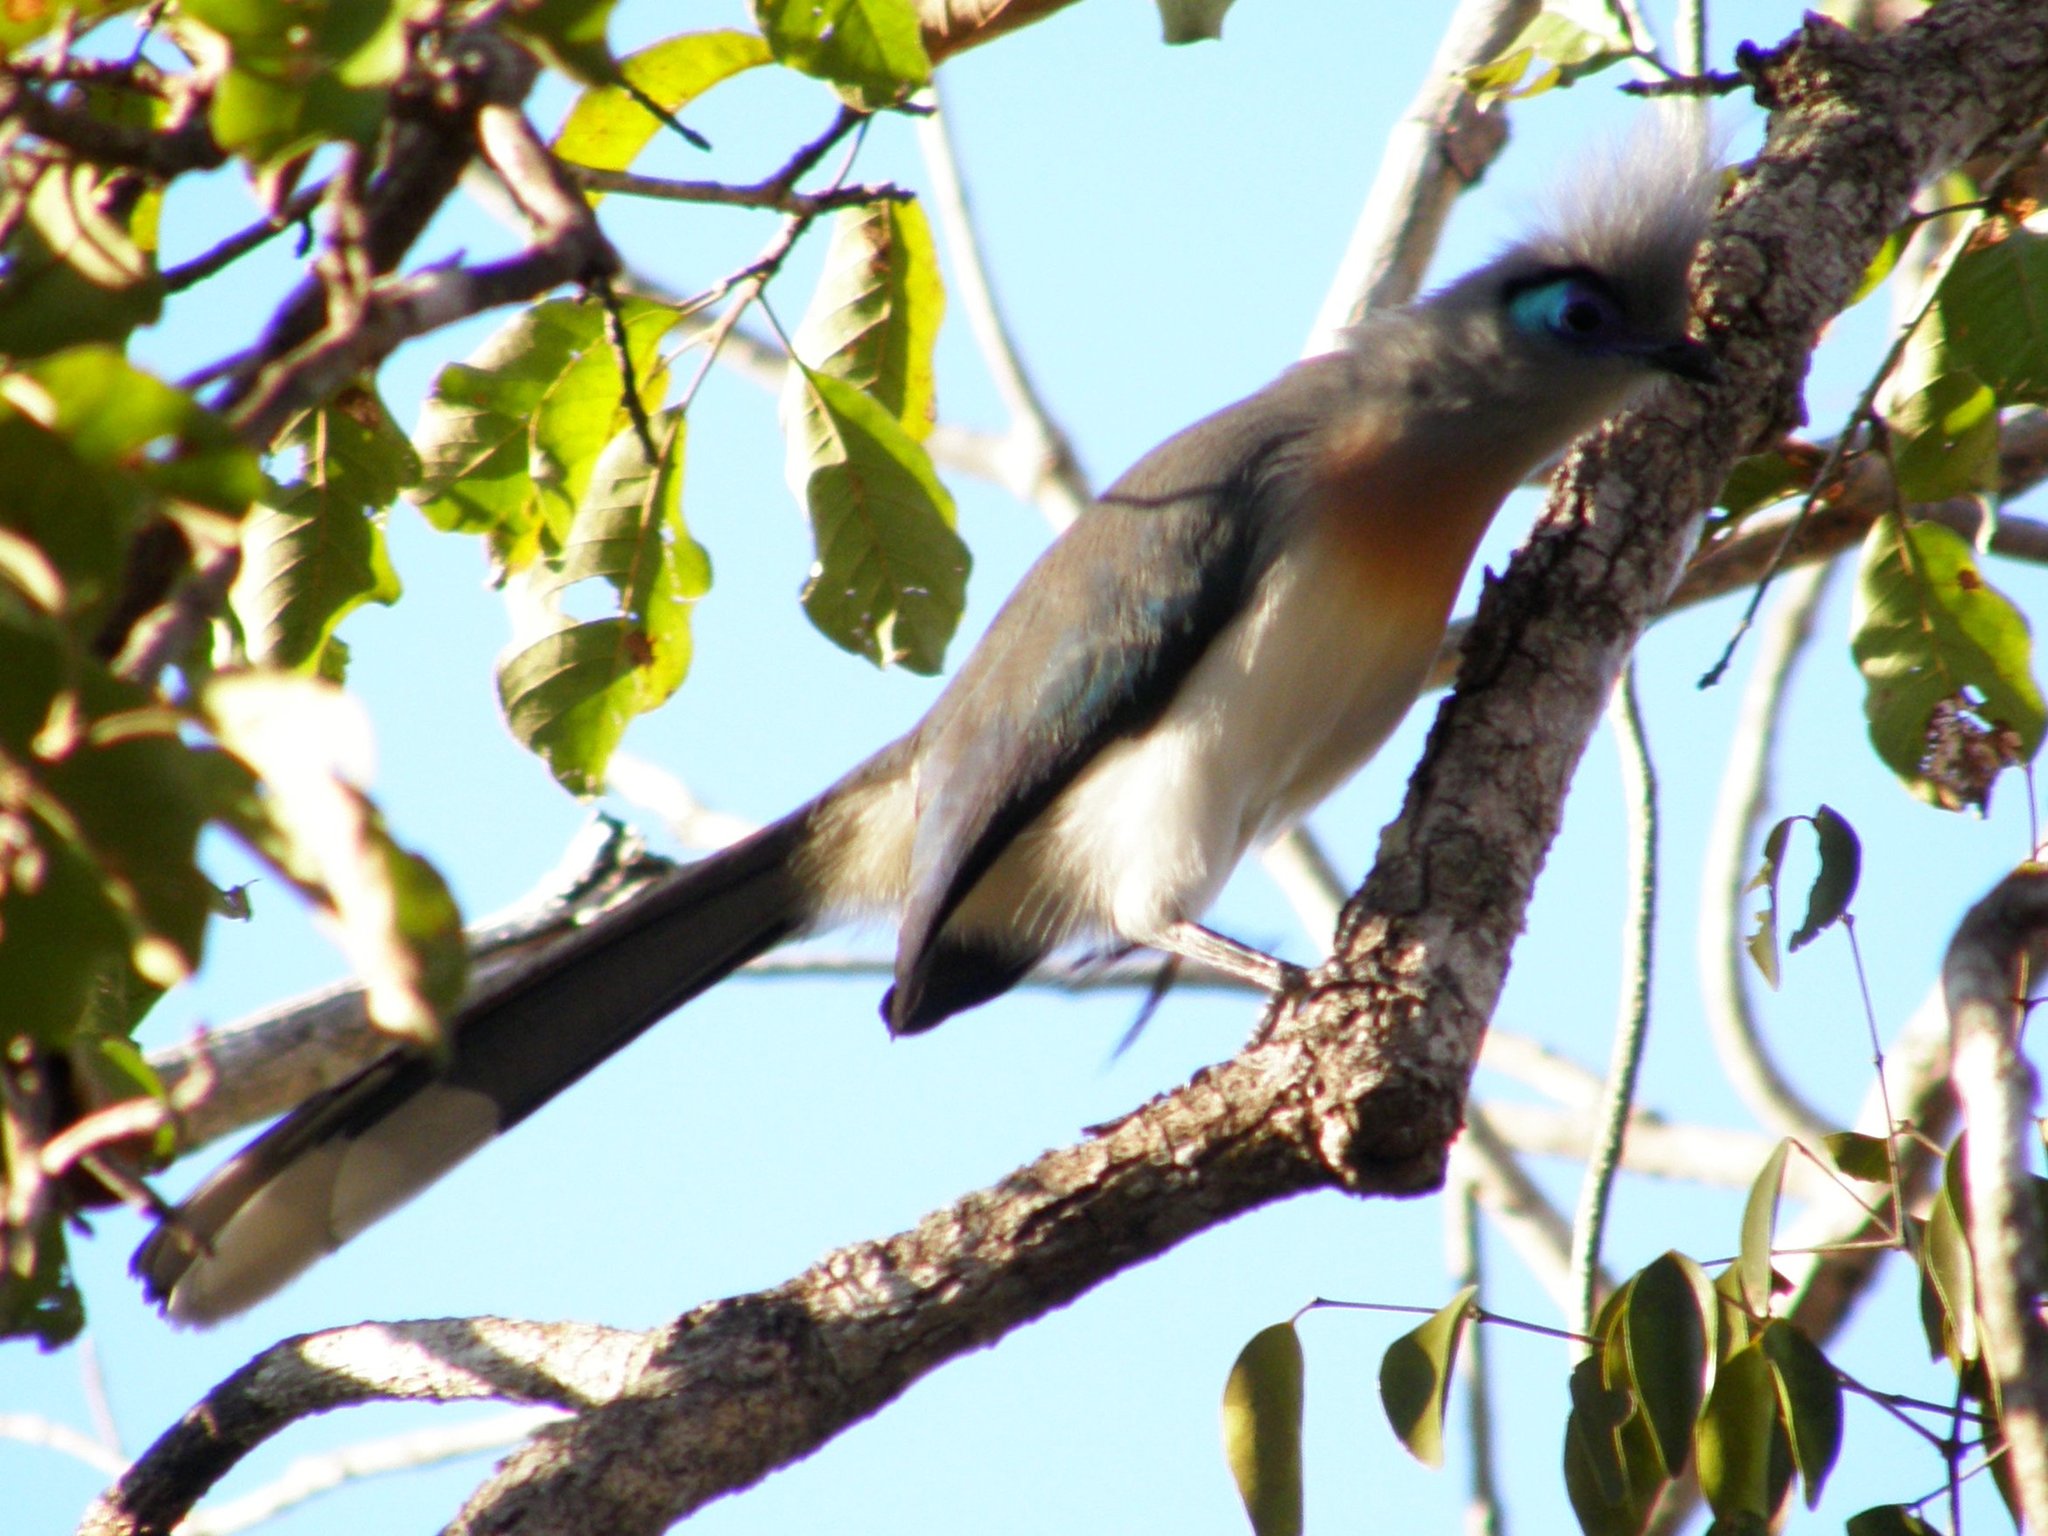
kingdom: Animalia
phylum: Chordata
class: Aves
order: Cuculiformes
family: Cuculidae
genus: Coua
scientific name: Coua cristata
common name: Crested coua
